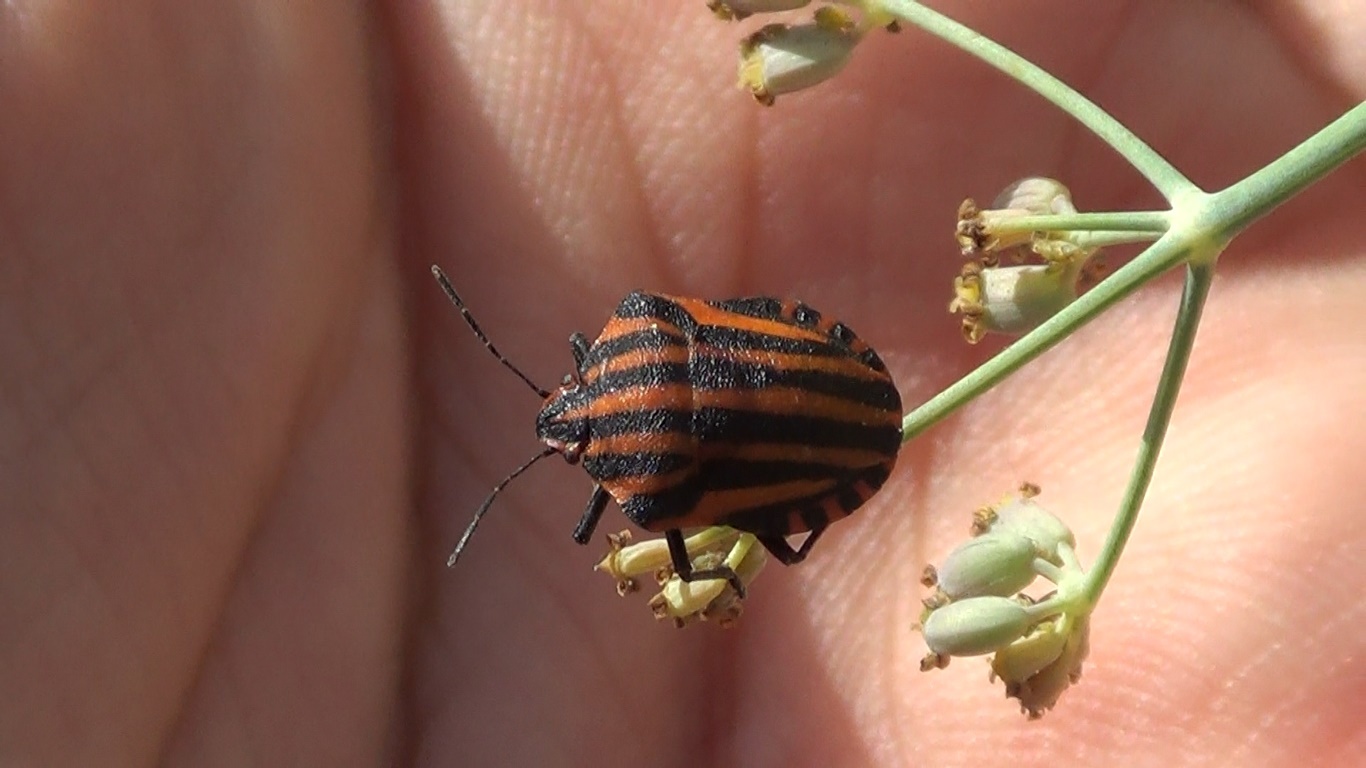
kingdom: Animalia
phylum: Arthropoda
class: Insecta
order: Hemiptera
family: Pentatomidae
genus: Graphosoma
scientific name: Graphosoma lineatum
